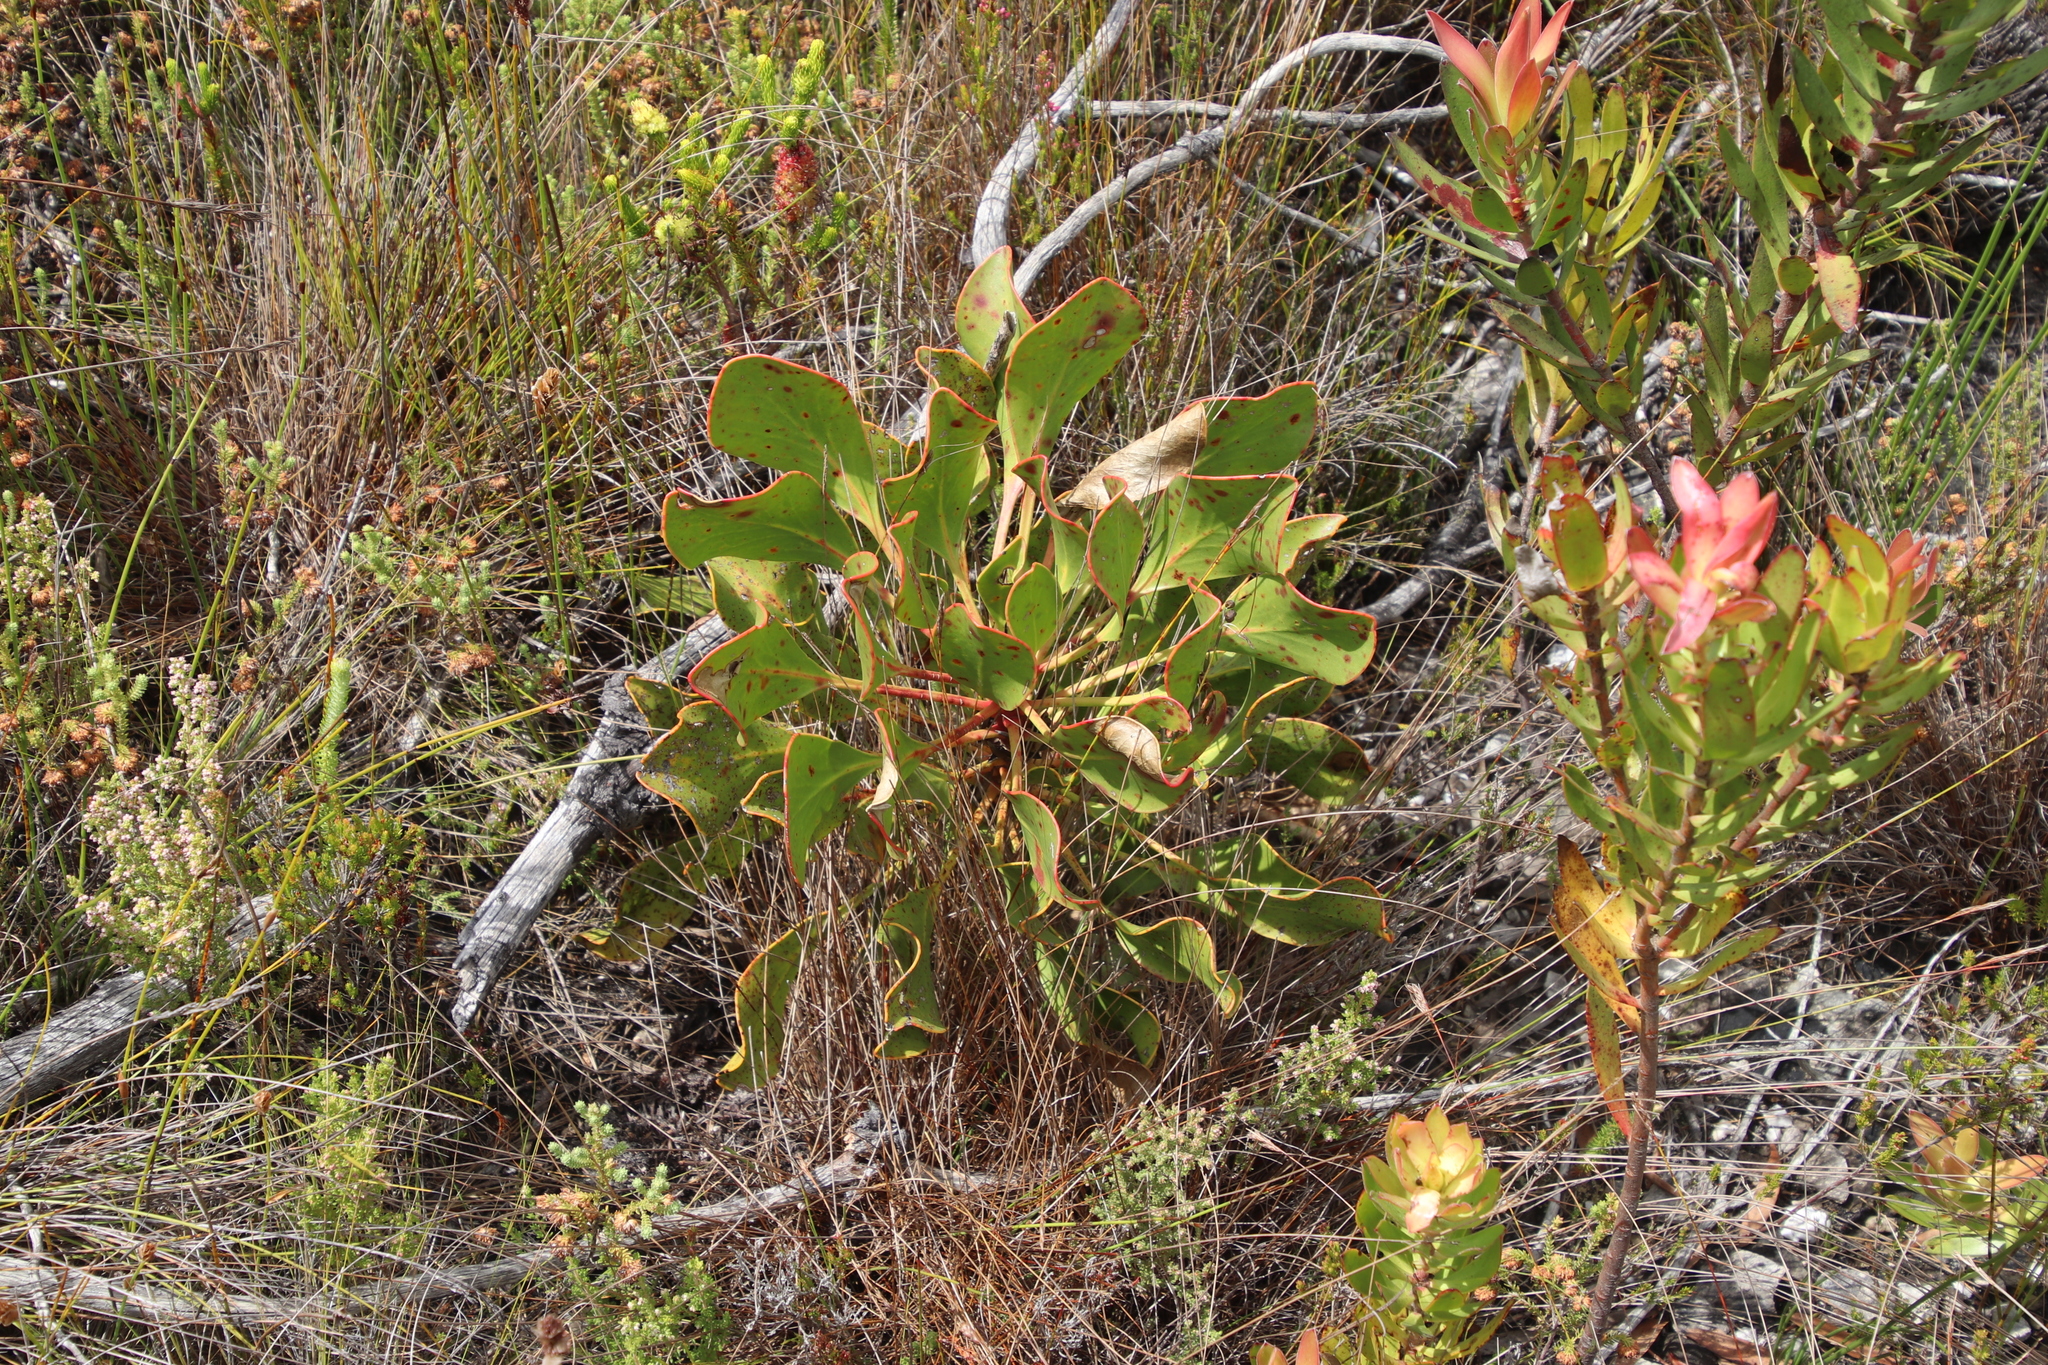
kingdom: Plantae
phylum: Tracheophyta
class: Magnoliopsida
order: Proteales
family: Proteaceae
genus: Protea
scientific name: Protea cynaroides
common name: King protea
